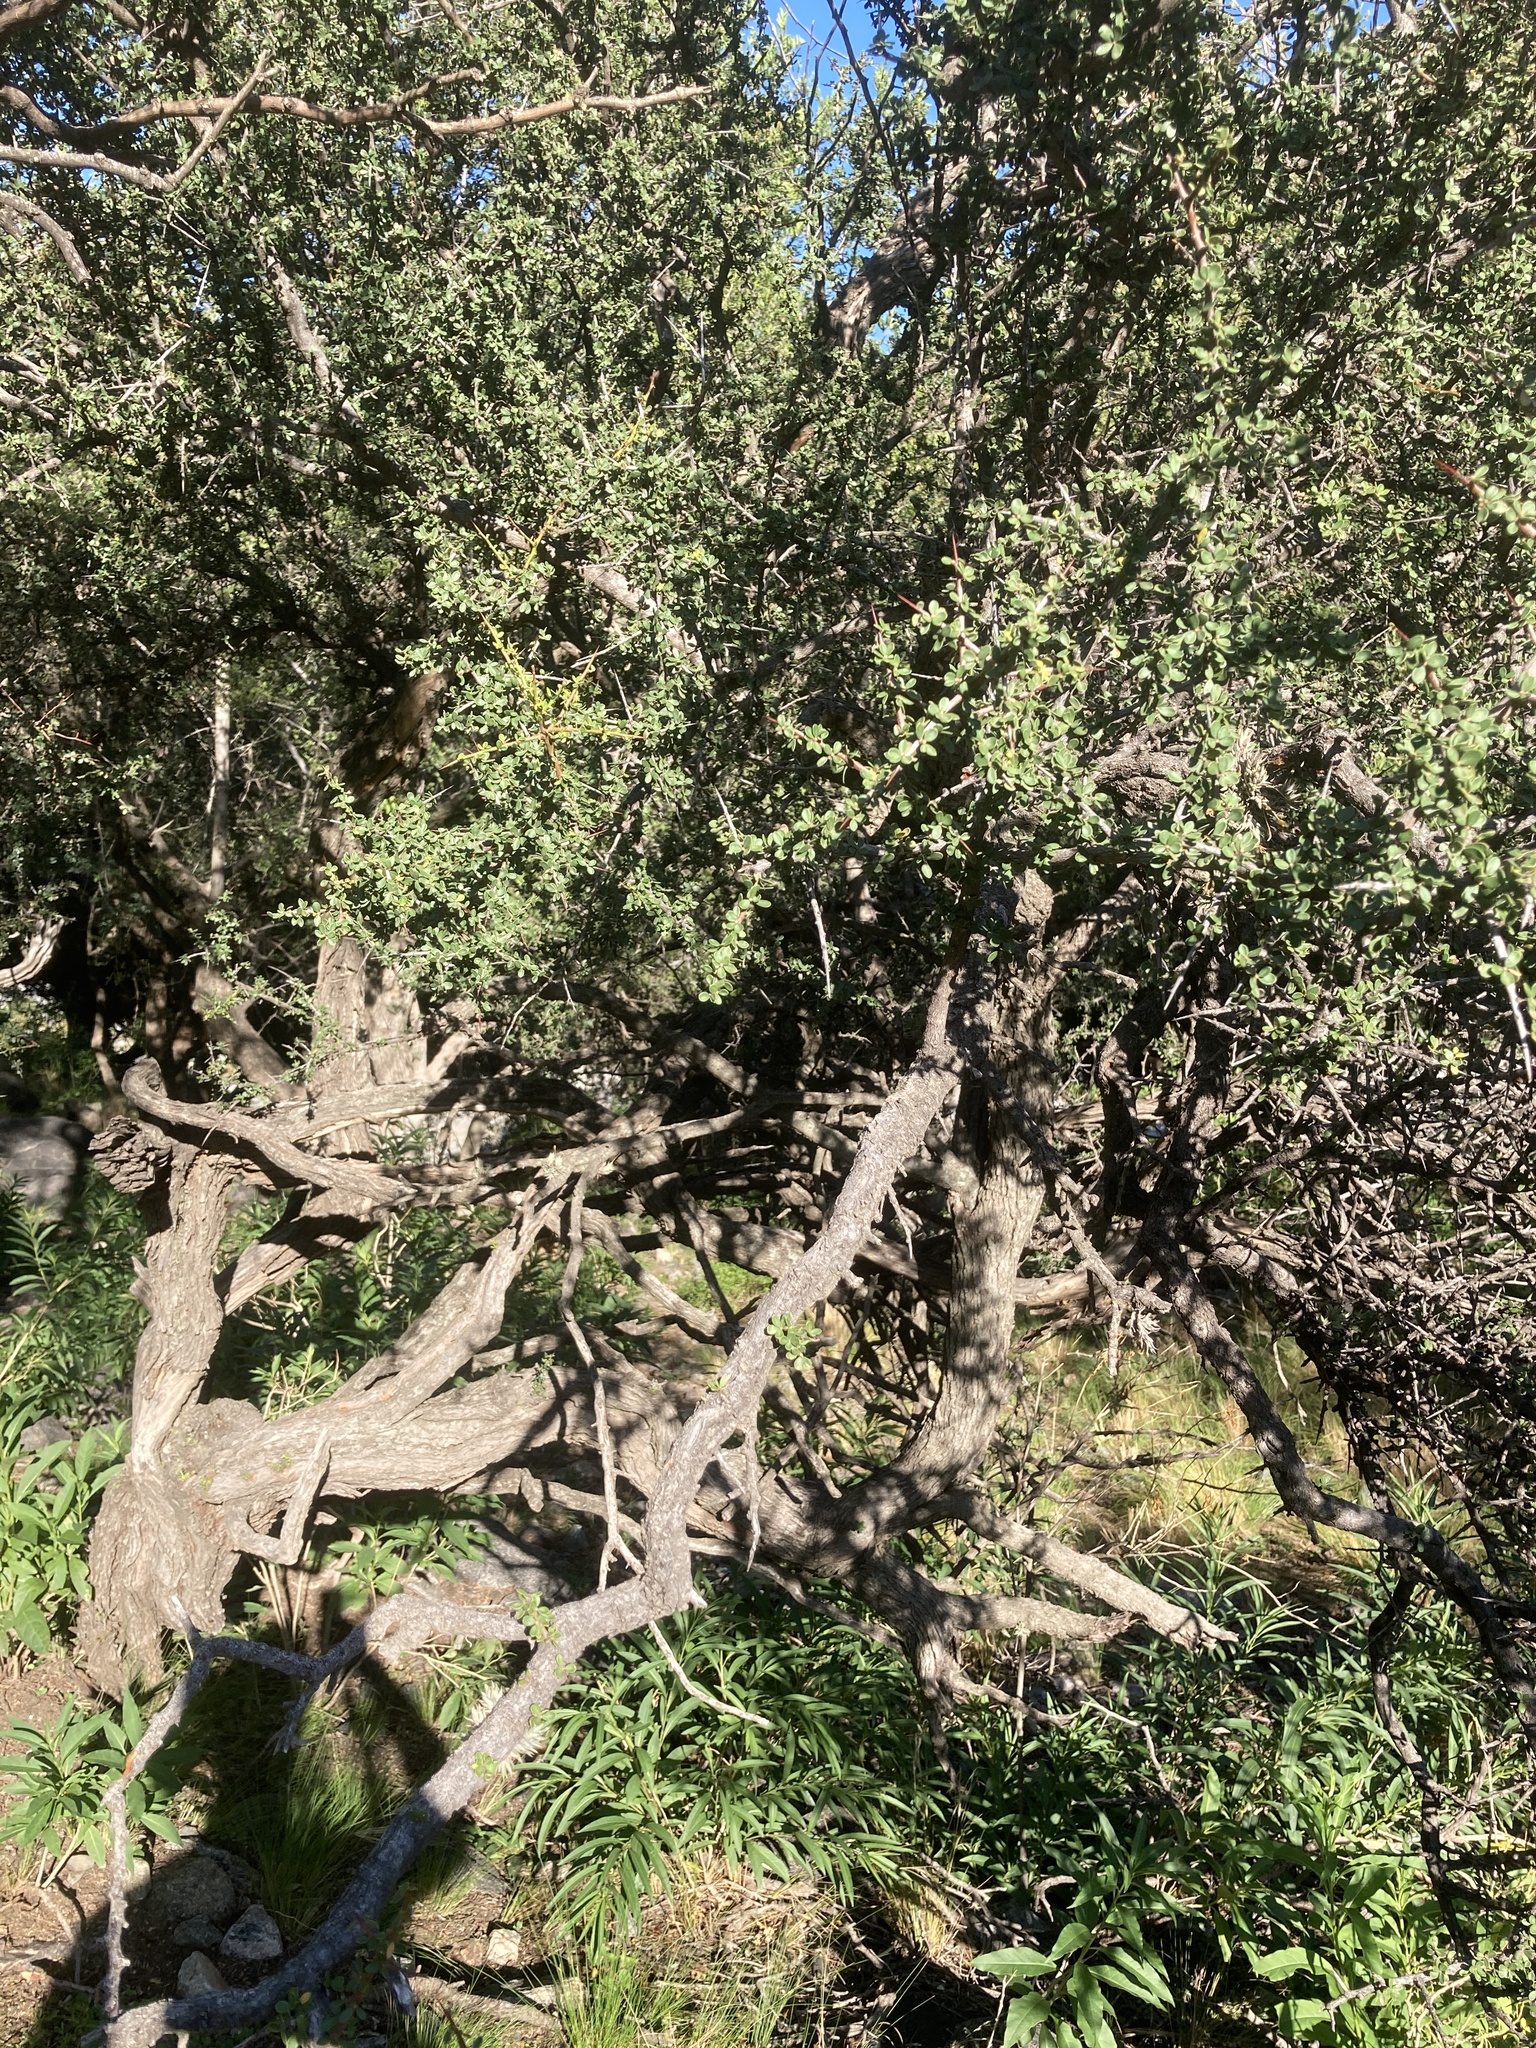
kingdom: Plantae
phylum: Tracheophyta
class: Magnoliopsida
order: Rosales
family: Rhamnaceae
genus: Condalia
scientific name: Condalia microphylla
